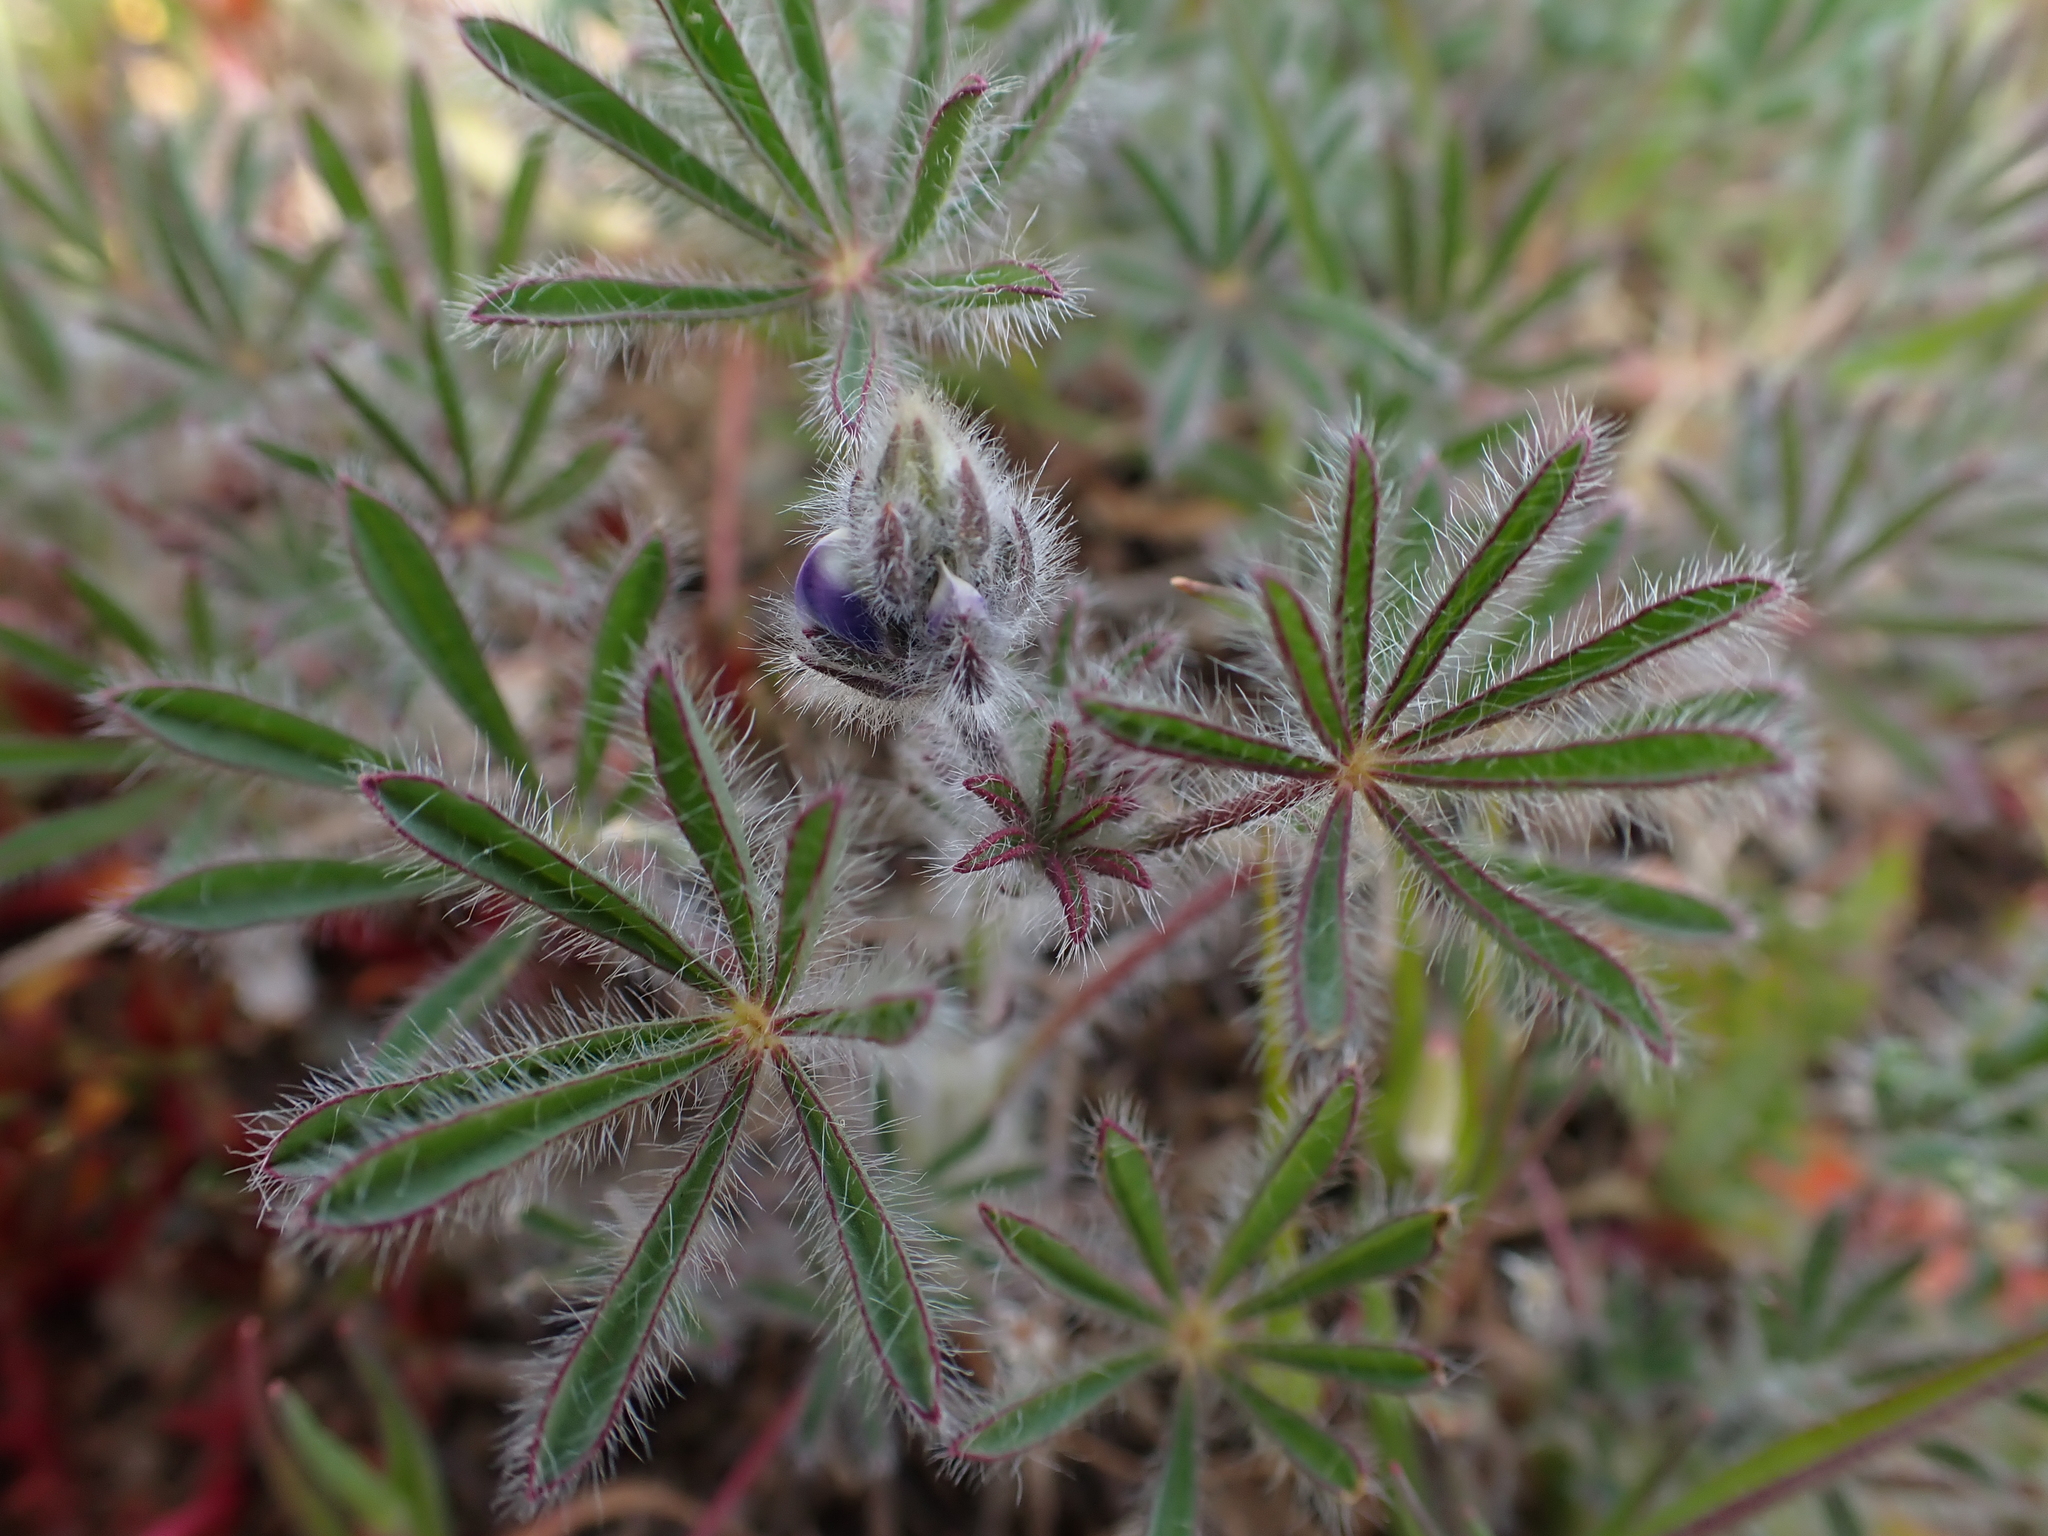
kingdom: Plantae
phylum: Tracheophyta
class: Magnoliopsida
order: Fabales
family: Fabaceae
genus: Lupinus
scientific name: Lupinus bicolor
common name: Miniature lupine
